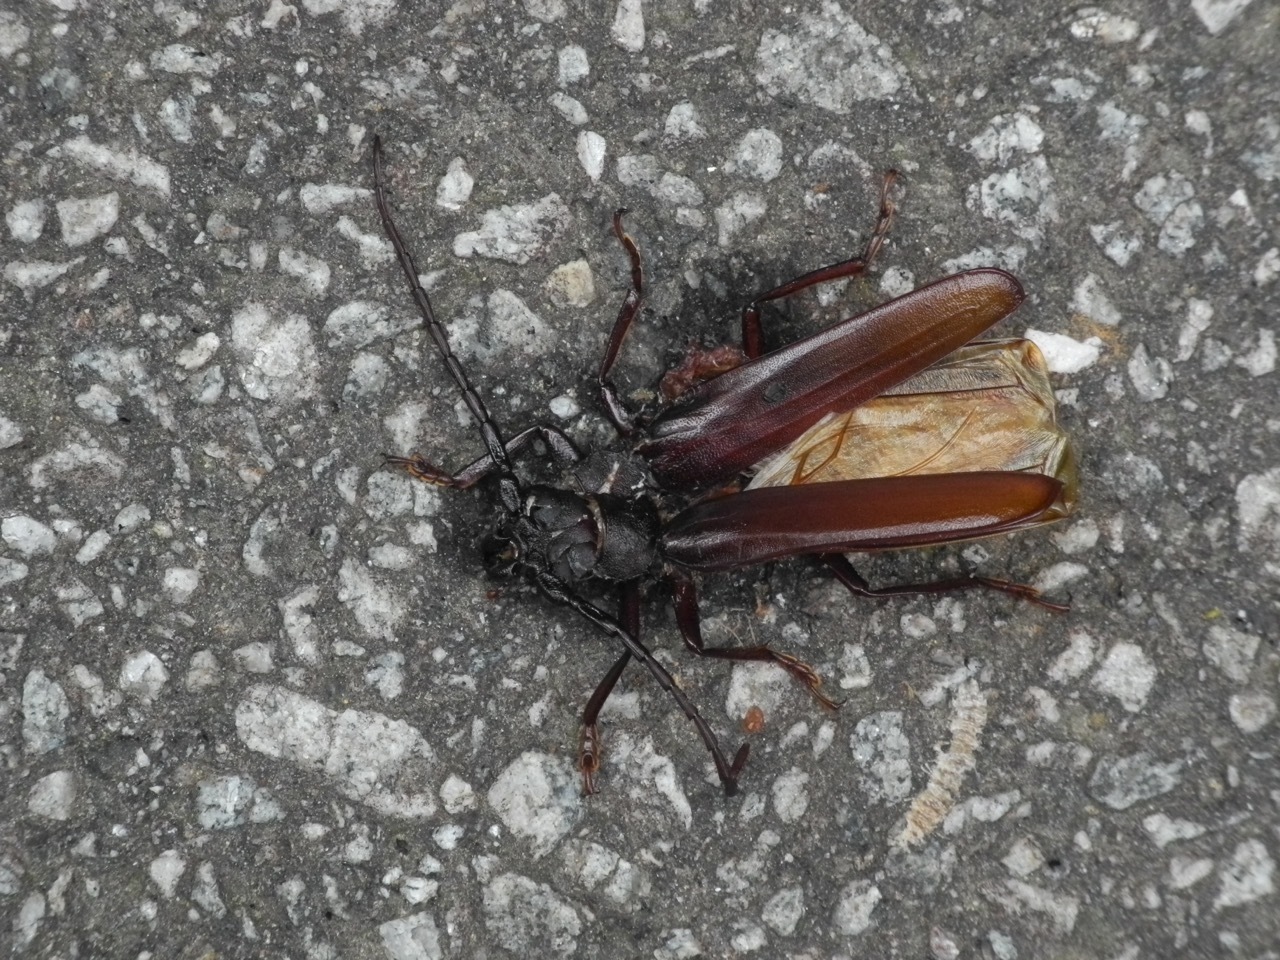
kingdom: Animalia
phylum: Arthropoda
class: Insecta
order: Coleoptera
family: Cerambycidae
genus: Orthosoma
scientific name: Orthosoma brunneum
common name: Brown prionid beetle
